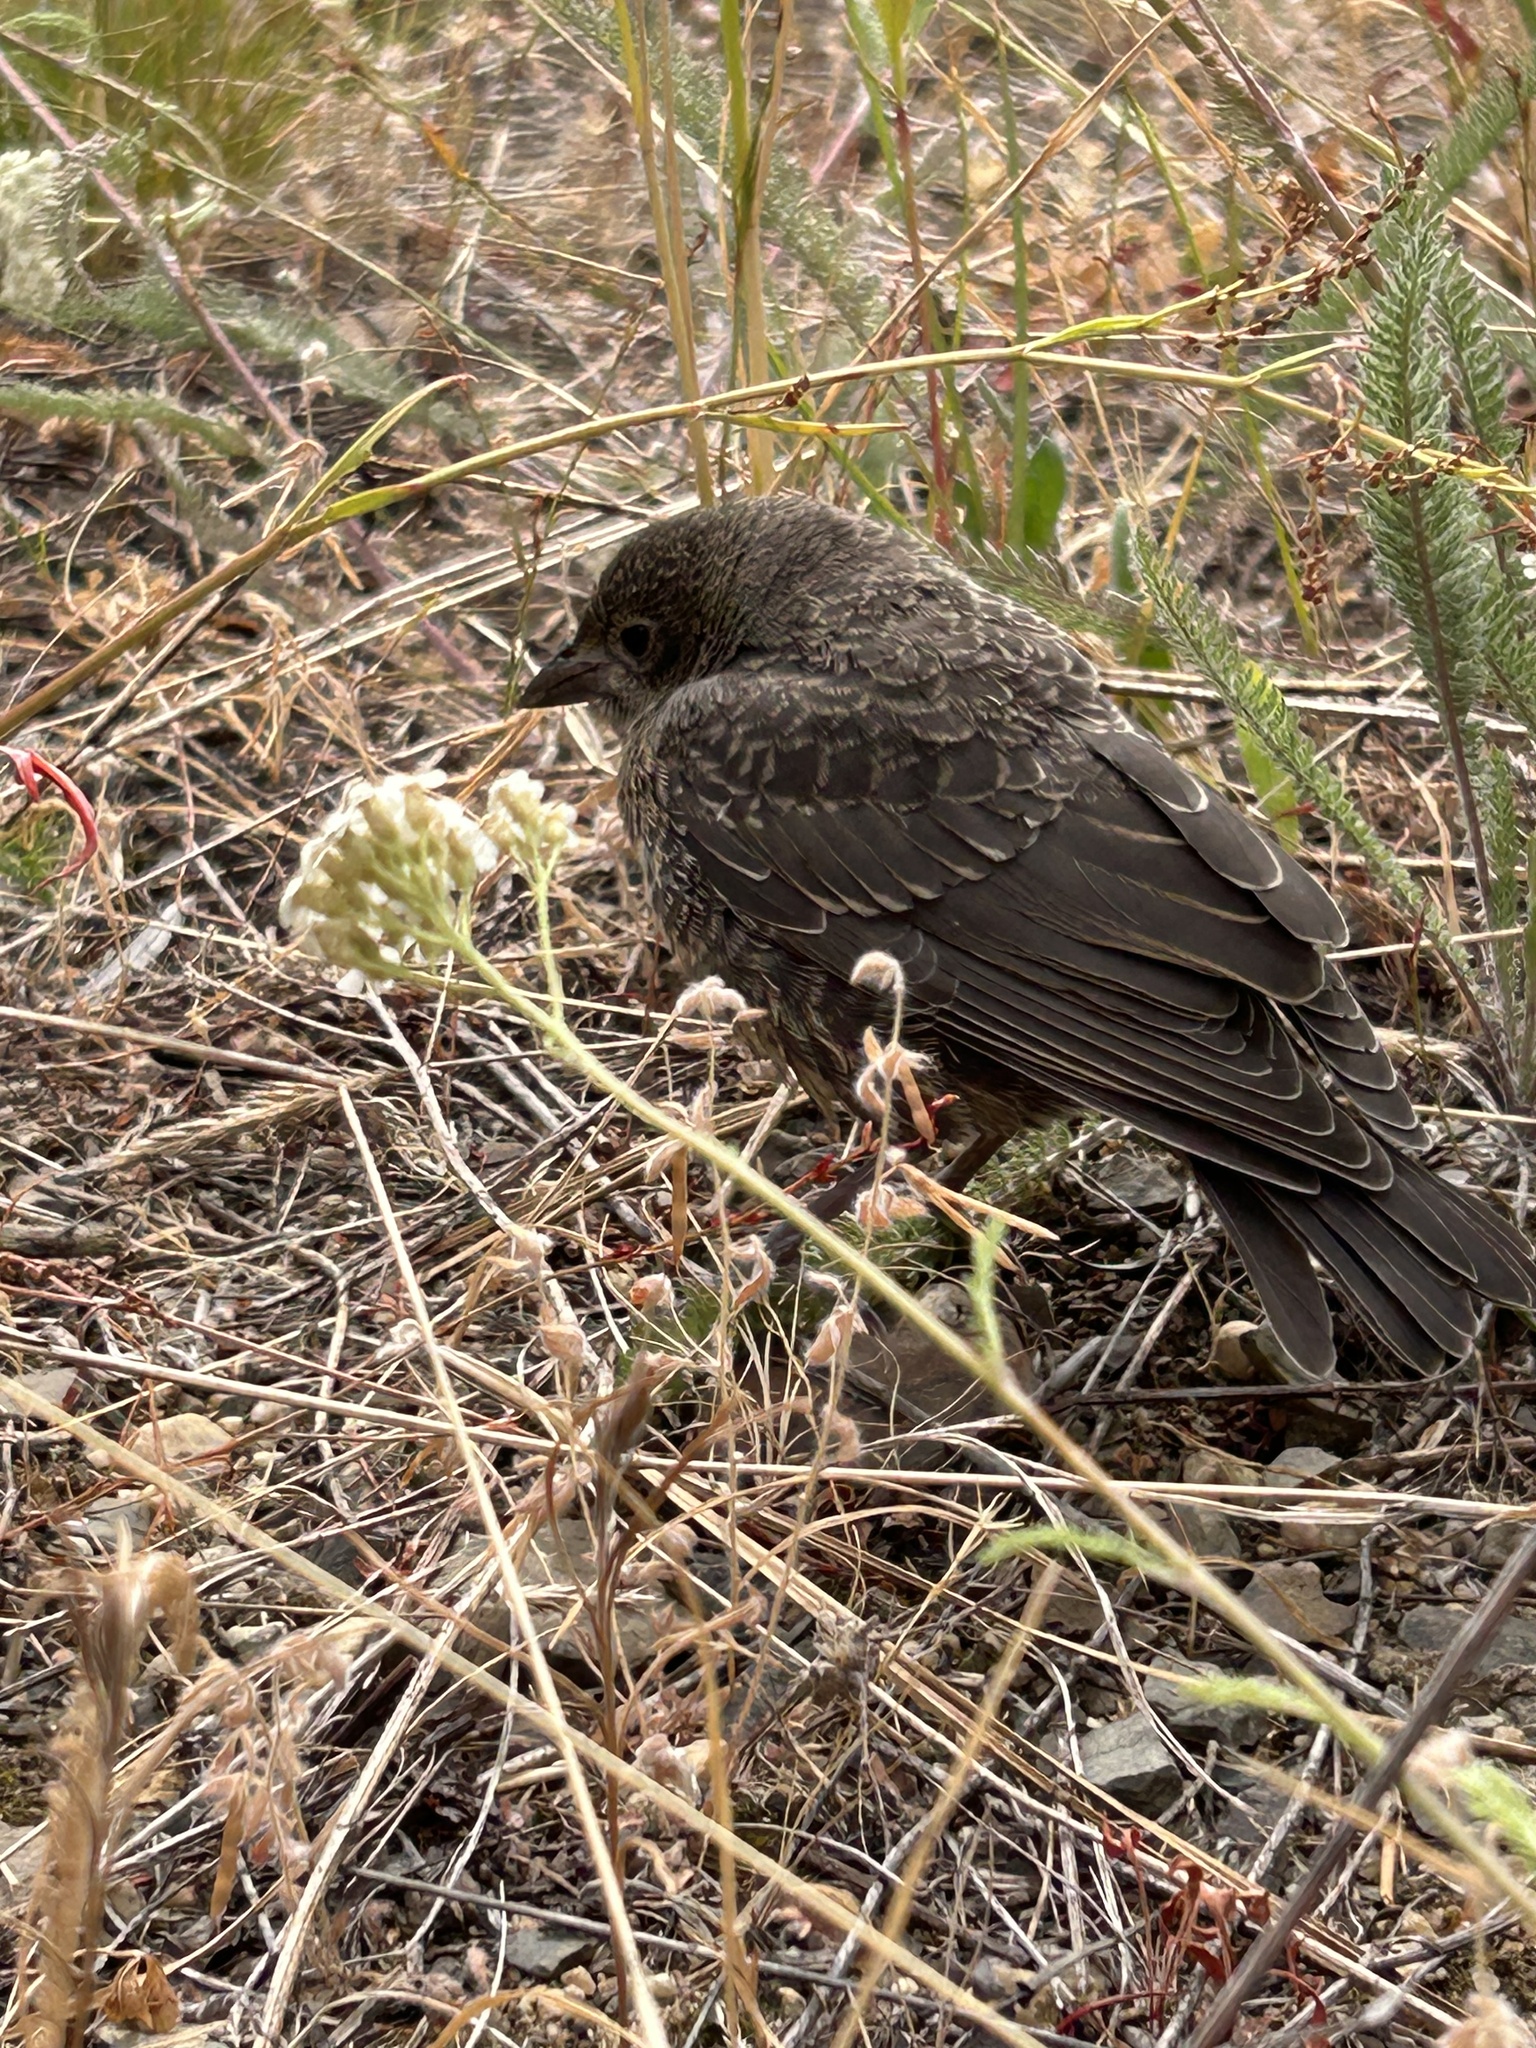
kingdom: Animalia
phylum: Chordata
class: Aves
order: Passeriformes
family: Icteridae
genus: Molothrus
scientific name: Molothrus ater
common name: Brown-headed cowbird
